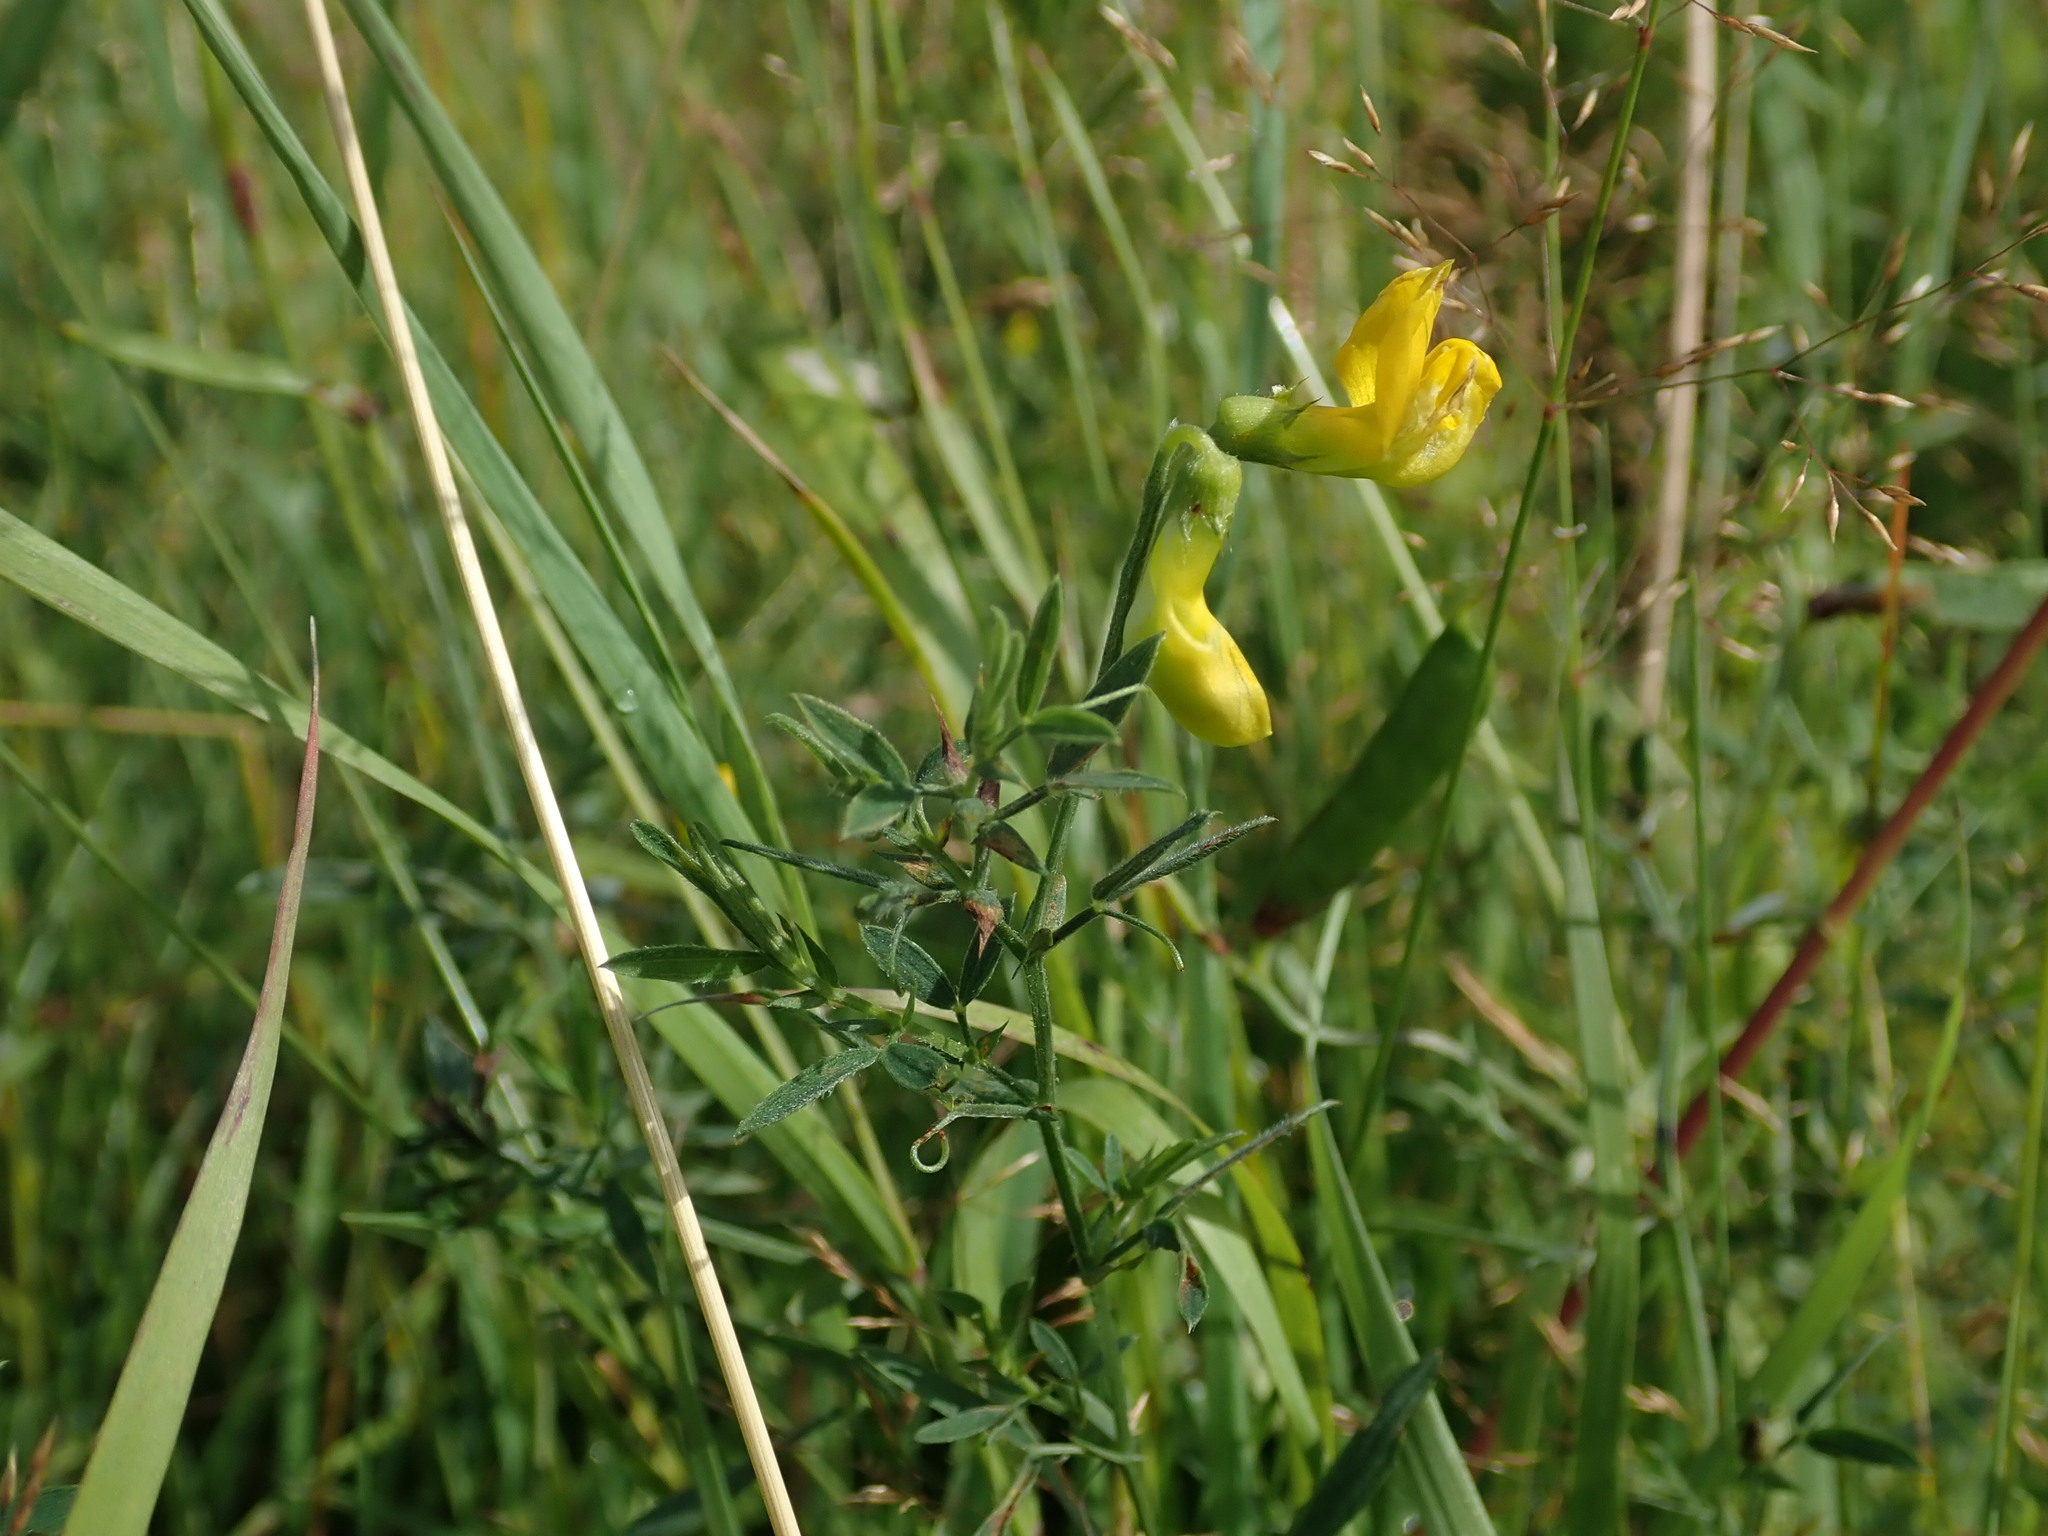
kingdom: Plantae
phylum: Tracheophyta
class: Magnoliopsida
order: Fabales
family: Fabaceae
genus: Lathyrus
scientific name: Lathyrus pratensis
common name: Meadow vetchling
